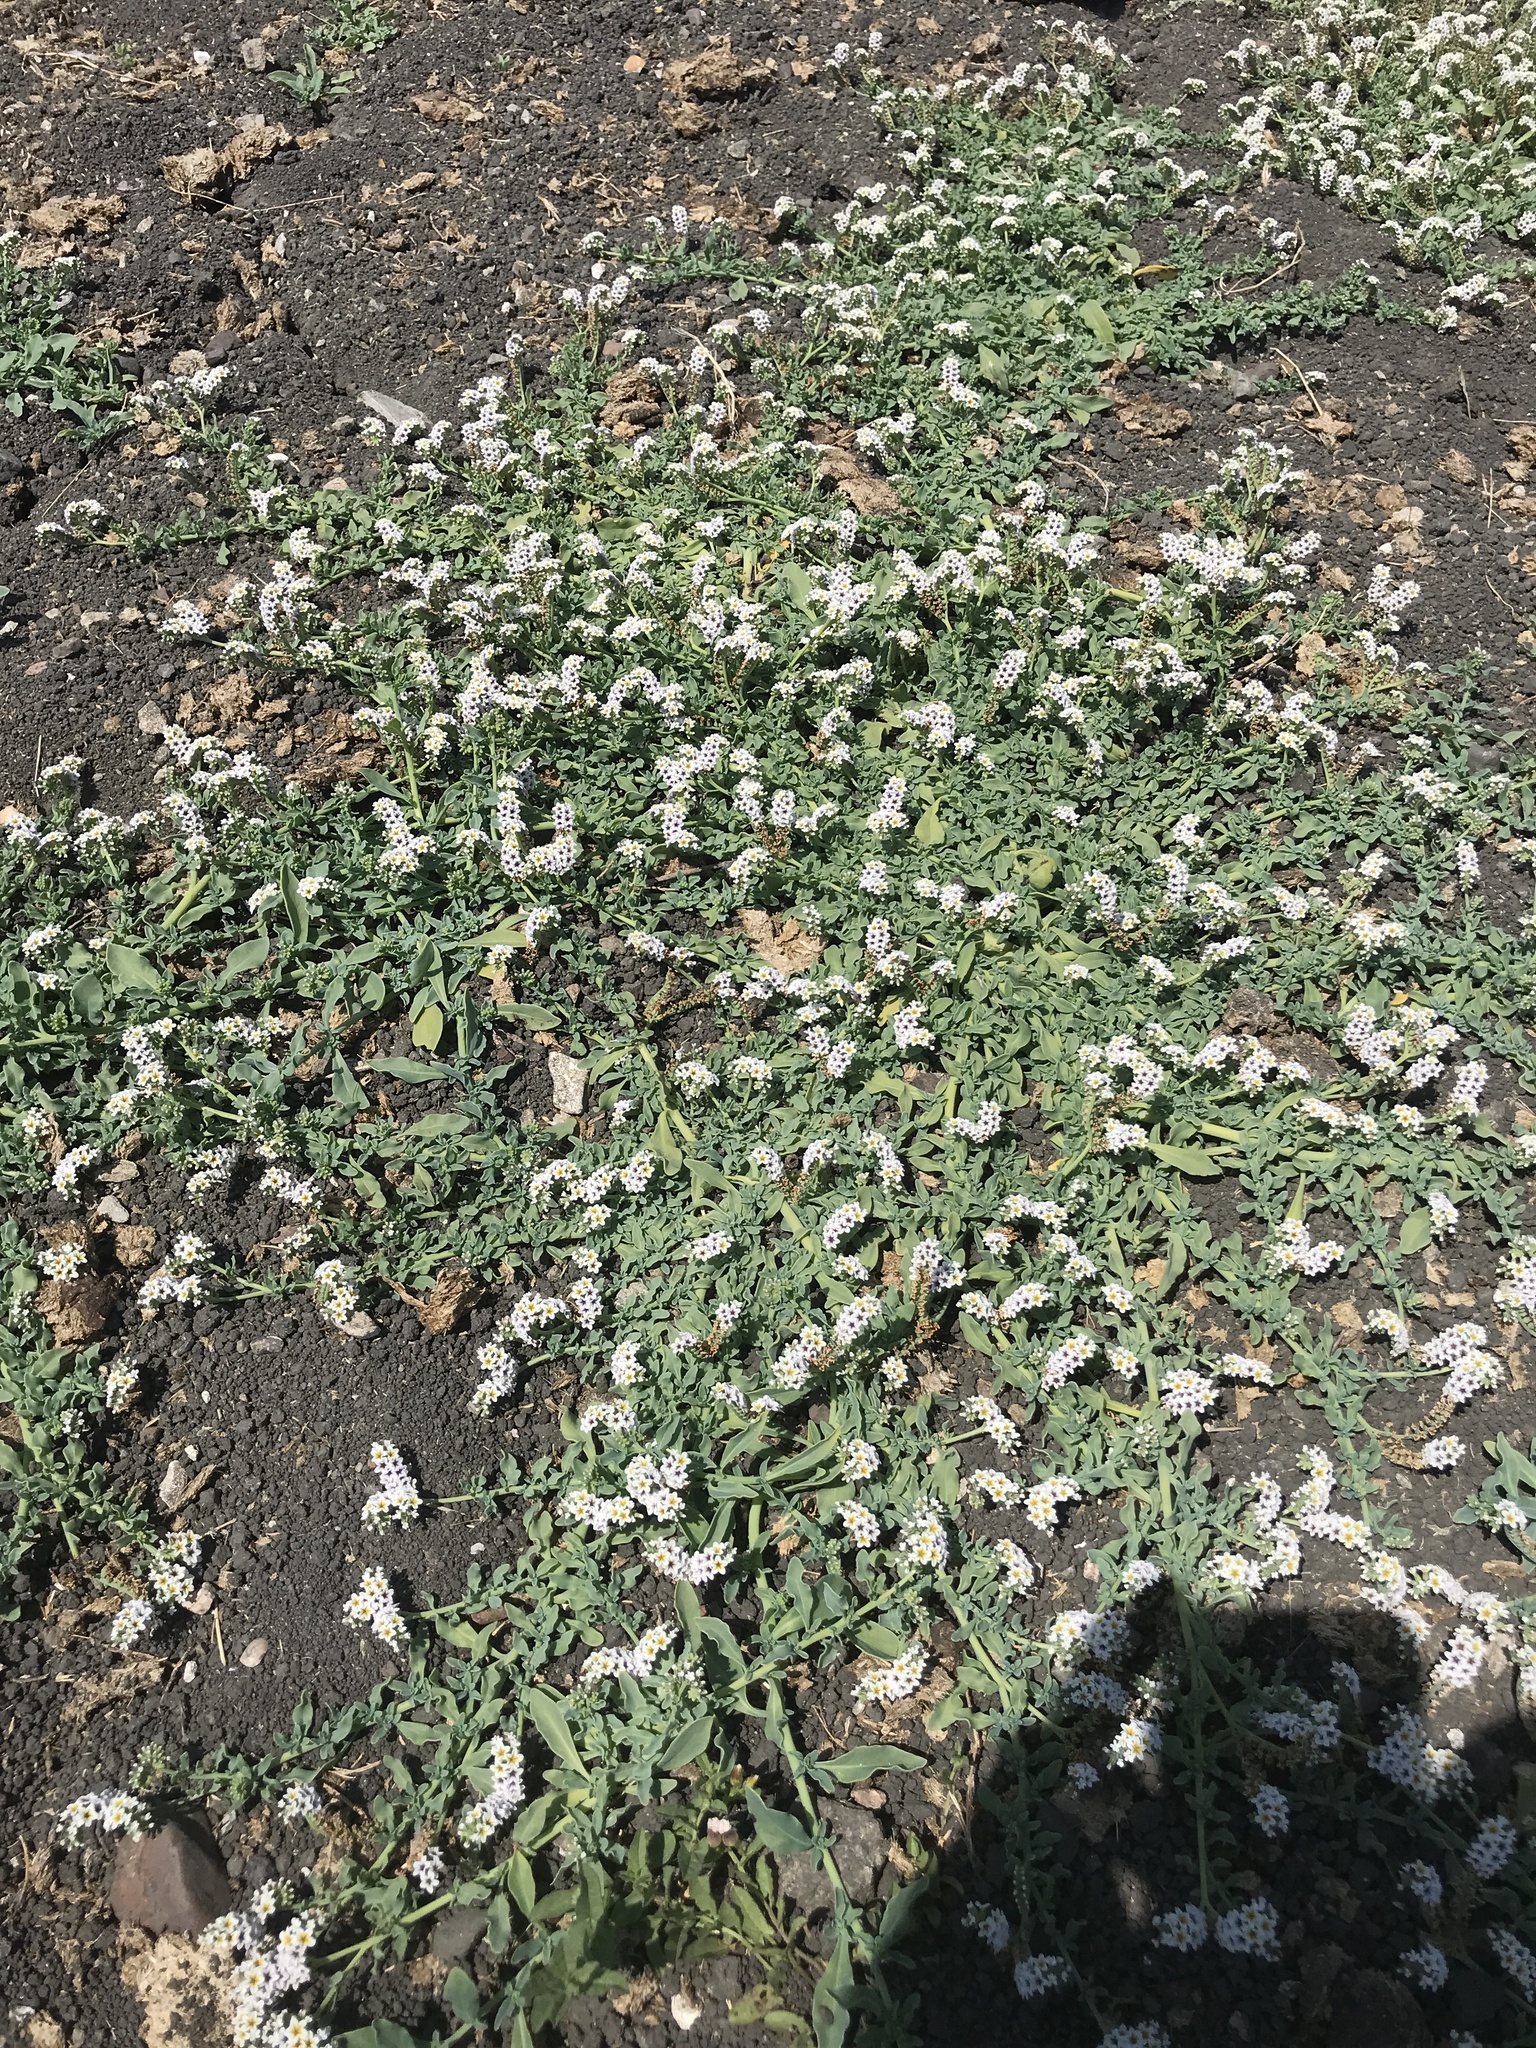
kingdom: Plantae
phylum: Tracheophyta
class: Magnoliopsida
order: Boraginales
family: Heliotropiaceae
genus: Heliotropium
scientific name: Heliotropium curassavicum
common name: Seaside heliotrope
